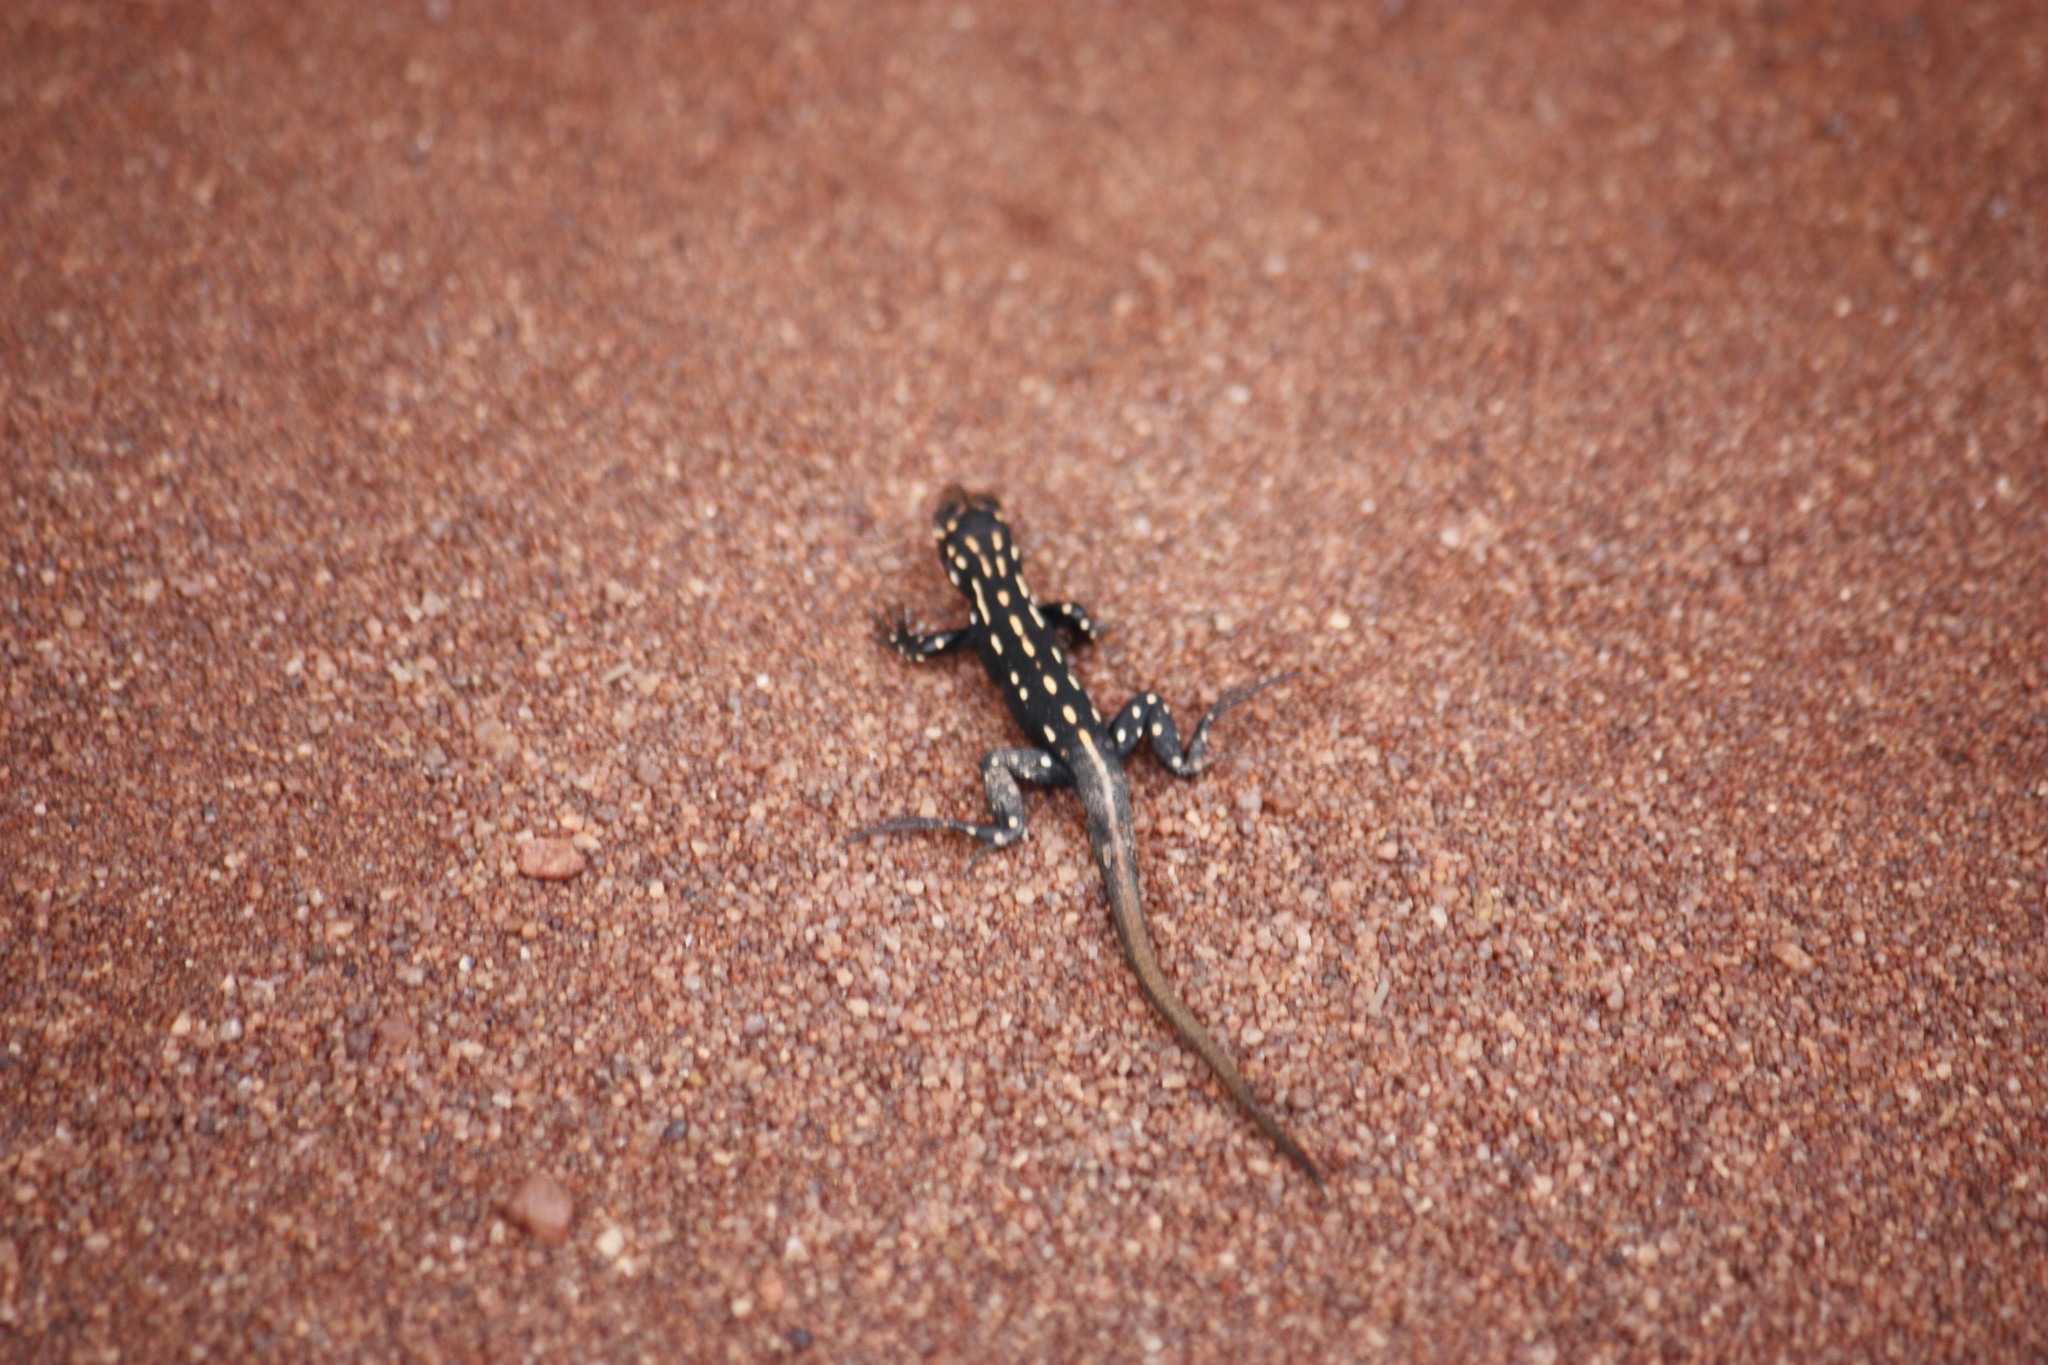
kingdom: Animalia
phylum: Chordata
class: Squamata
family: Lacertidae
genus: Heliobolus
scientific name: Heliobolus lugubris
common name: Bushveld lizard
